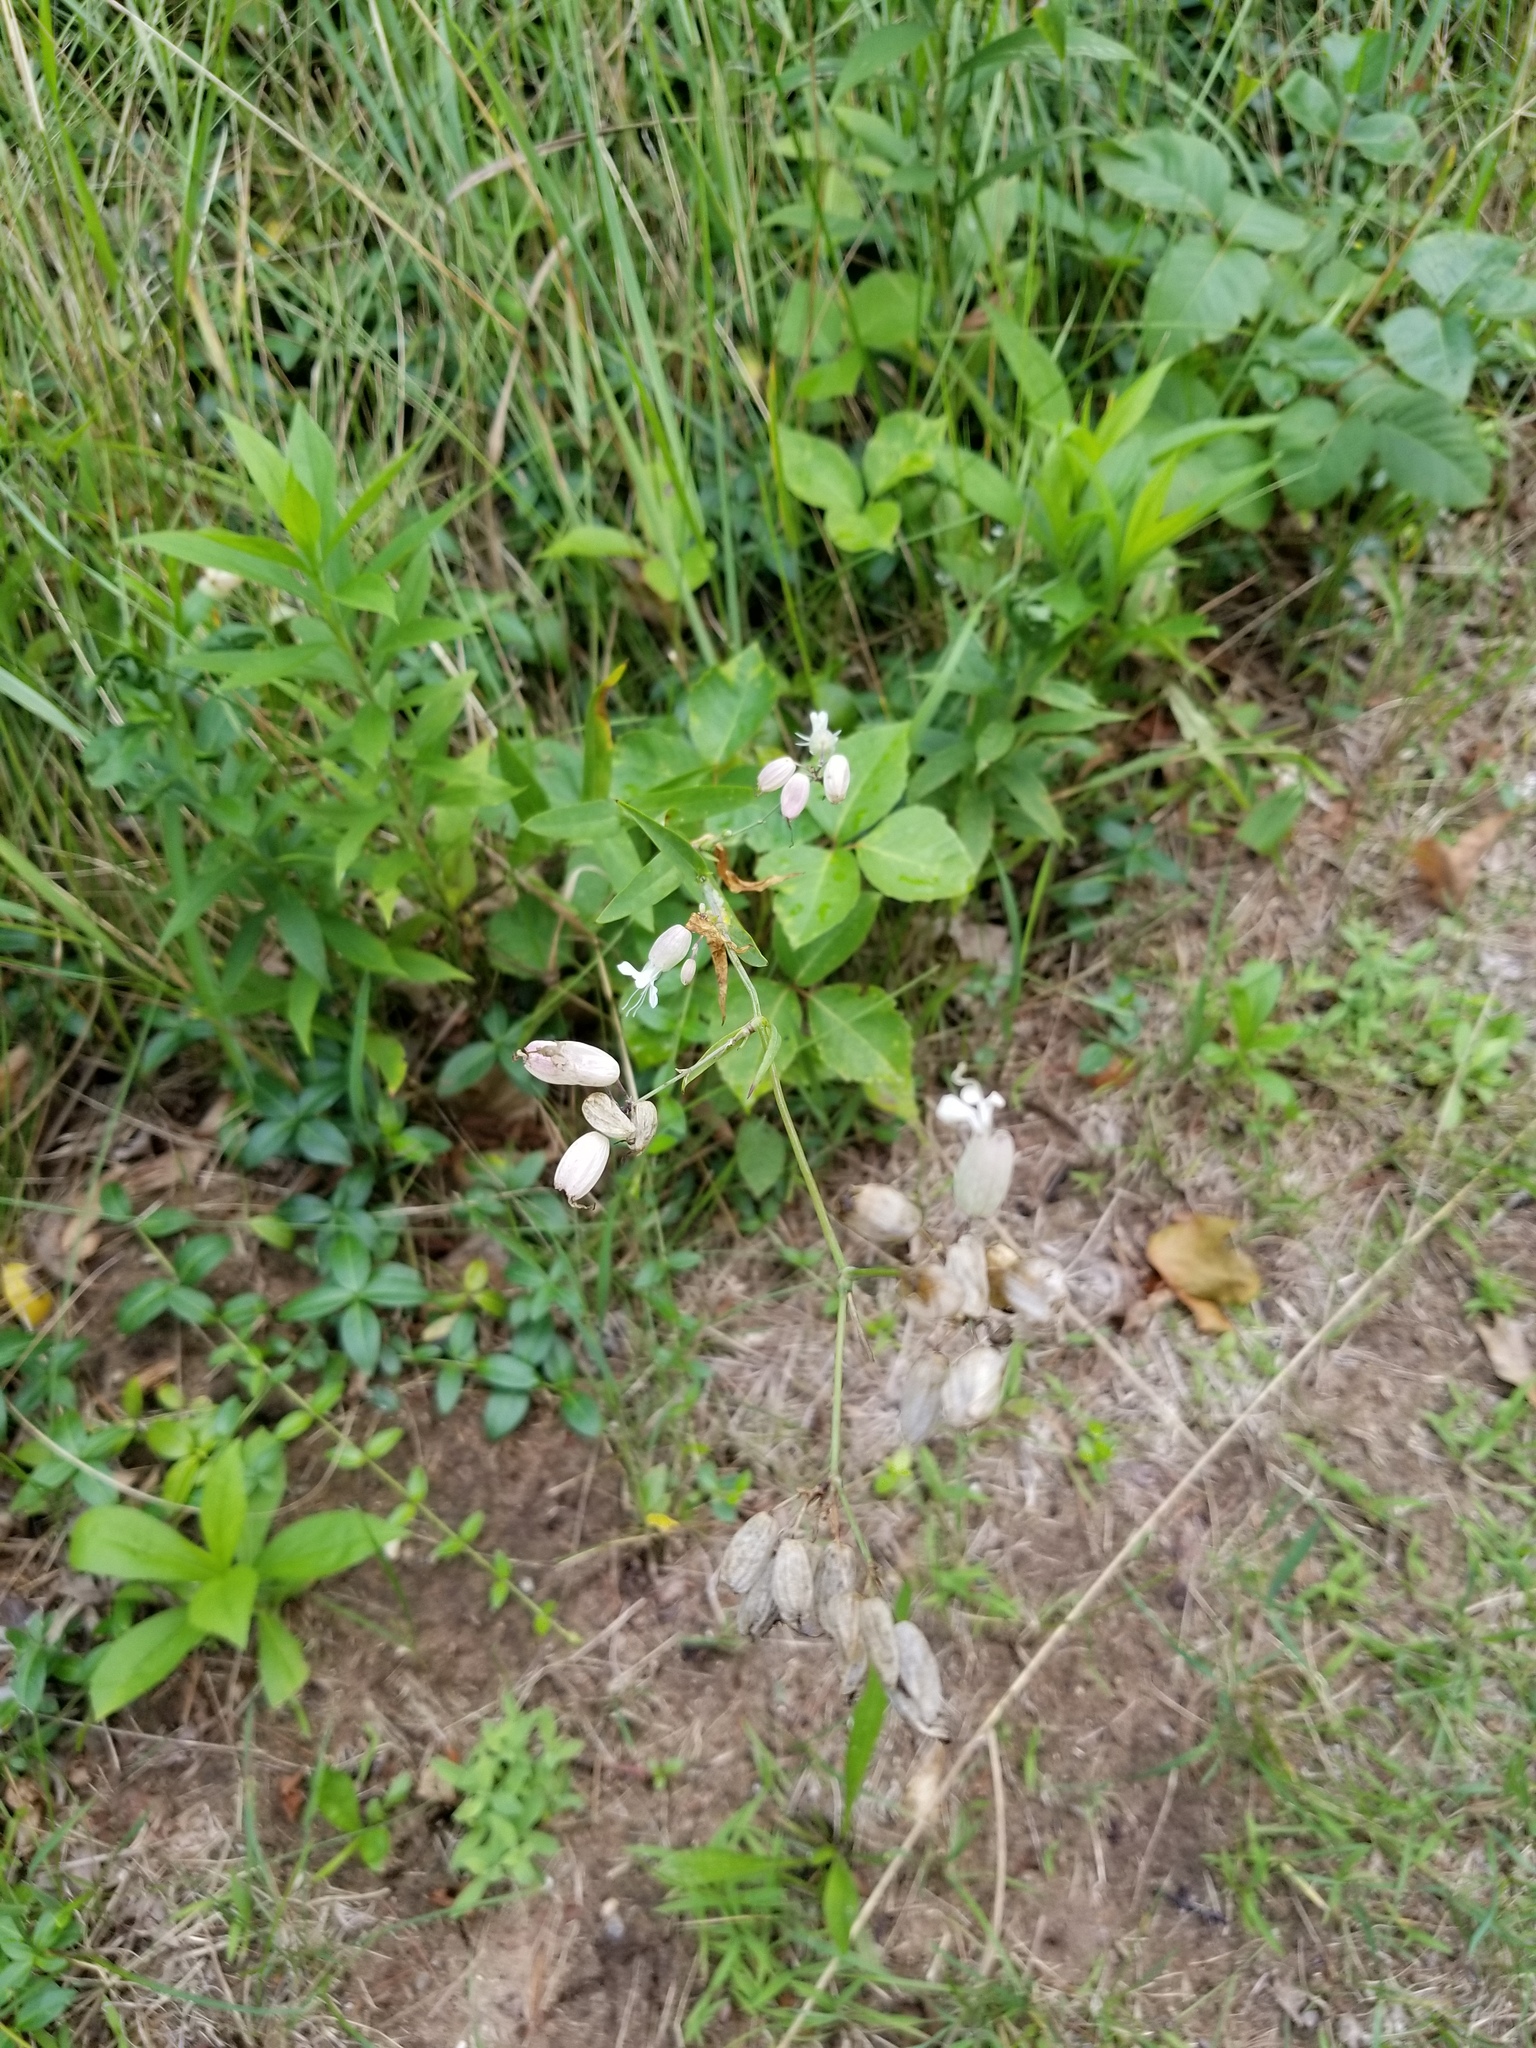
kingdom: Plantae
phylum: Tracheophyta
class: Magnoliopsida
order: Caryophyllales
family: Caryophyllaceae
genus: Silene
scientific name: Silene vulgaris
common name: Bladder campion
